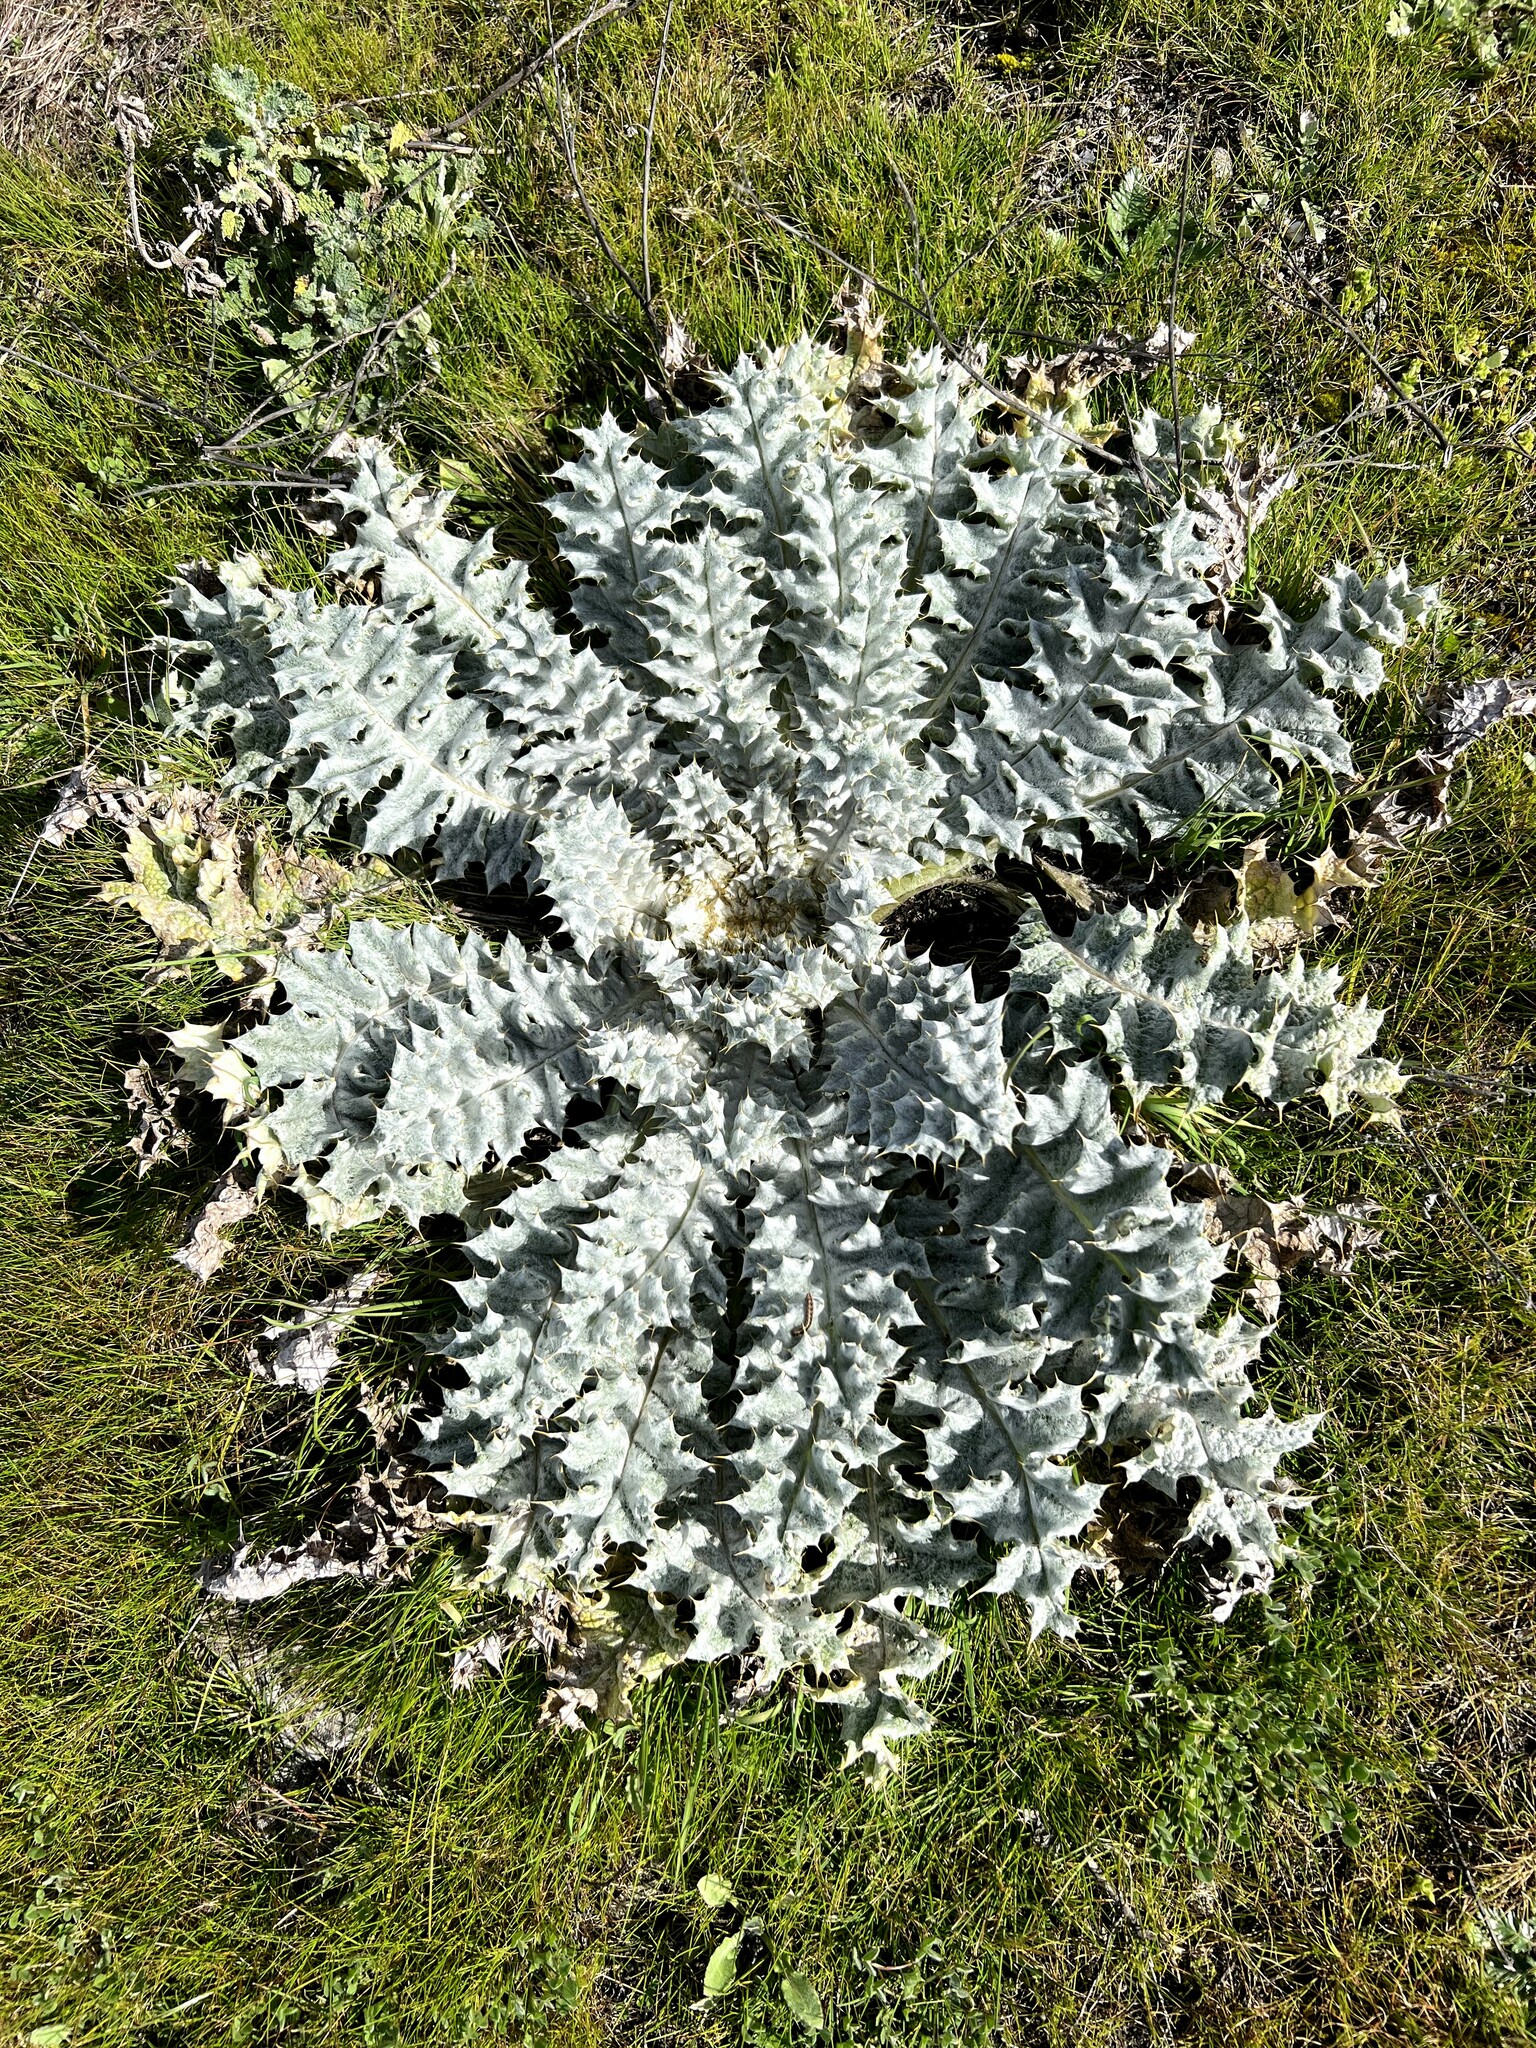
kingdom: Plantae
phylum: Tracheophyta
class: Magnoliopsida
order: Asterales
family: Asteraceae
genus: Onopordum
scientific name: Onopordum acaulon
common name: Horse thistle
